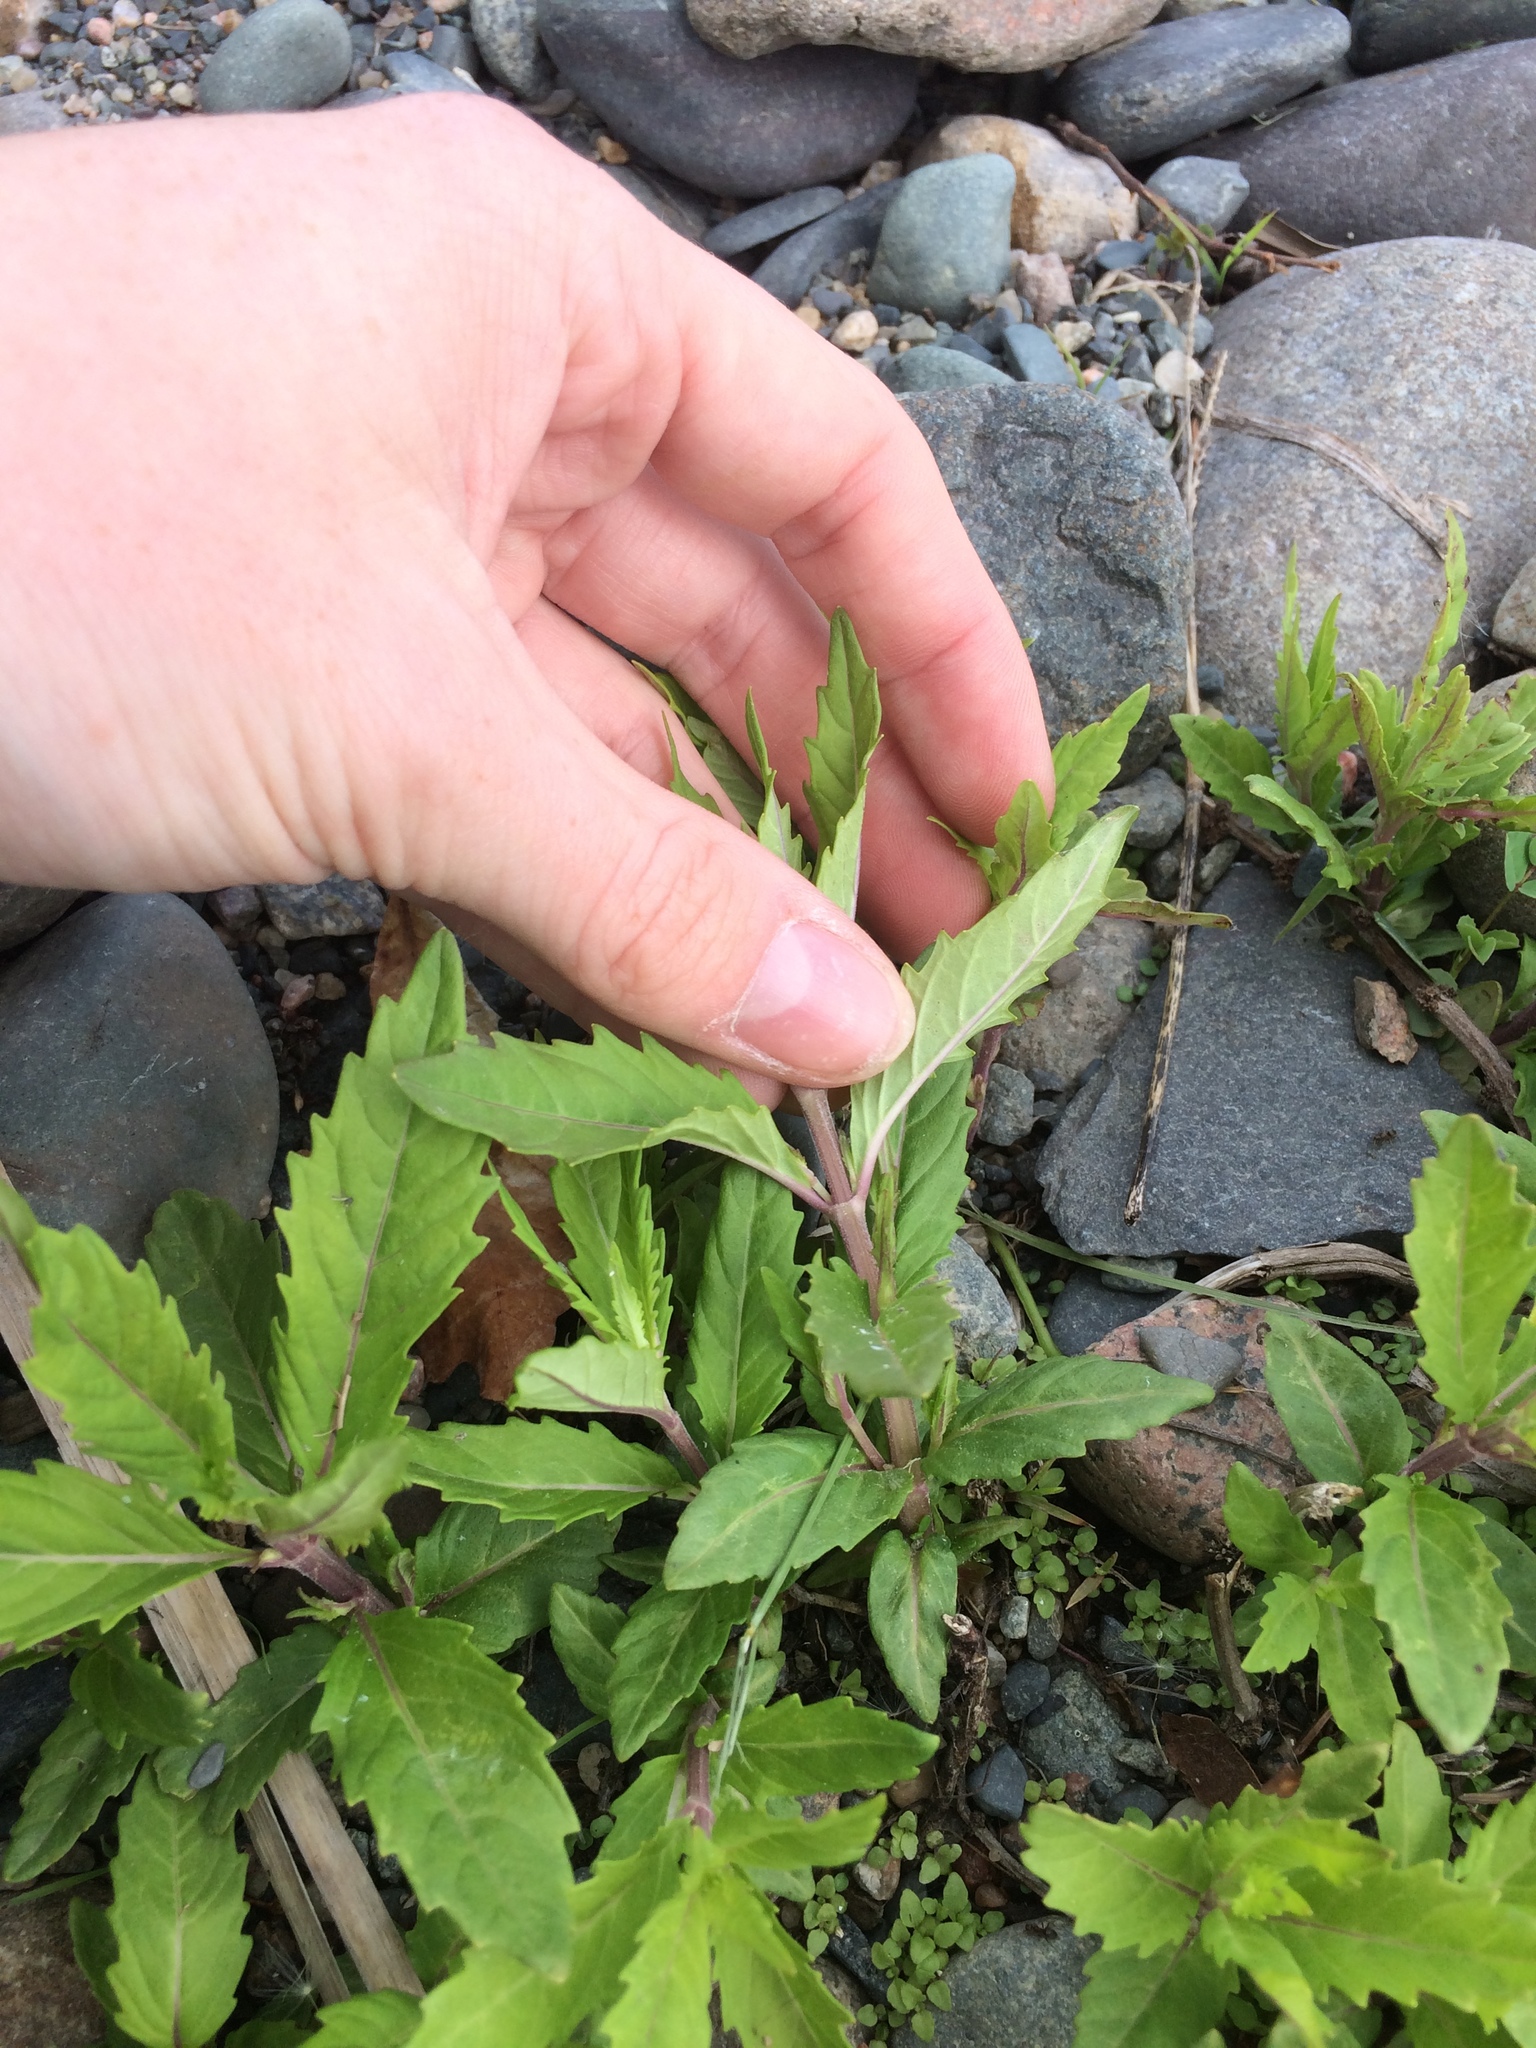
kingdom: Plantae
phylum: Tracheophyta
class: Magnoliopsida
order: Lamiales
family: Lamiaceae
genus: Lycopus
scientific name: Lycopus uniflorus
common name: Northern bugleweed
